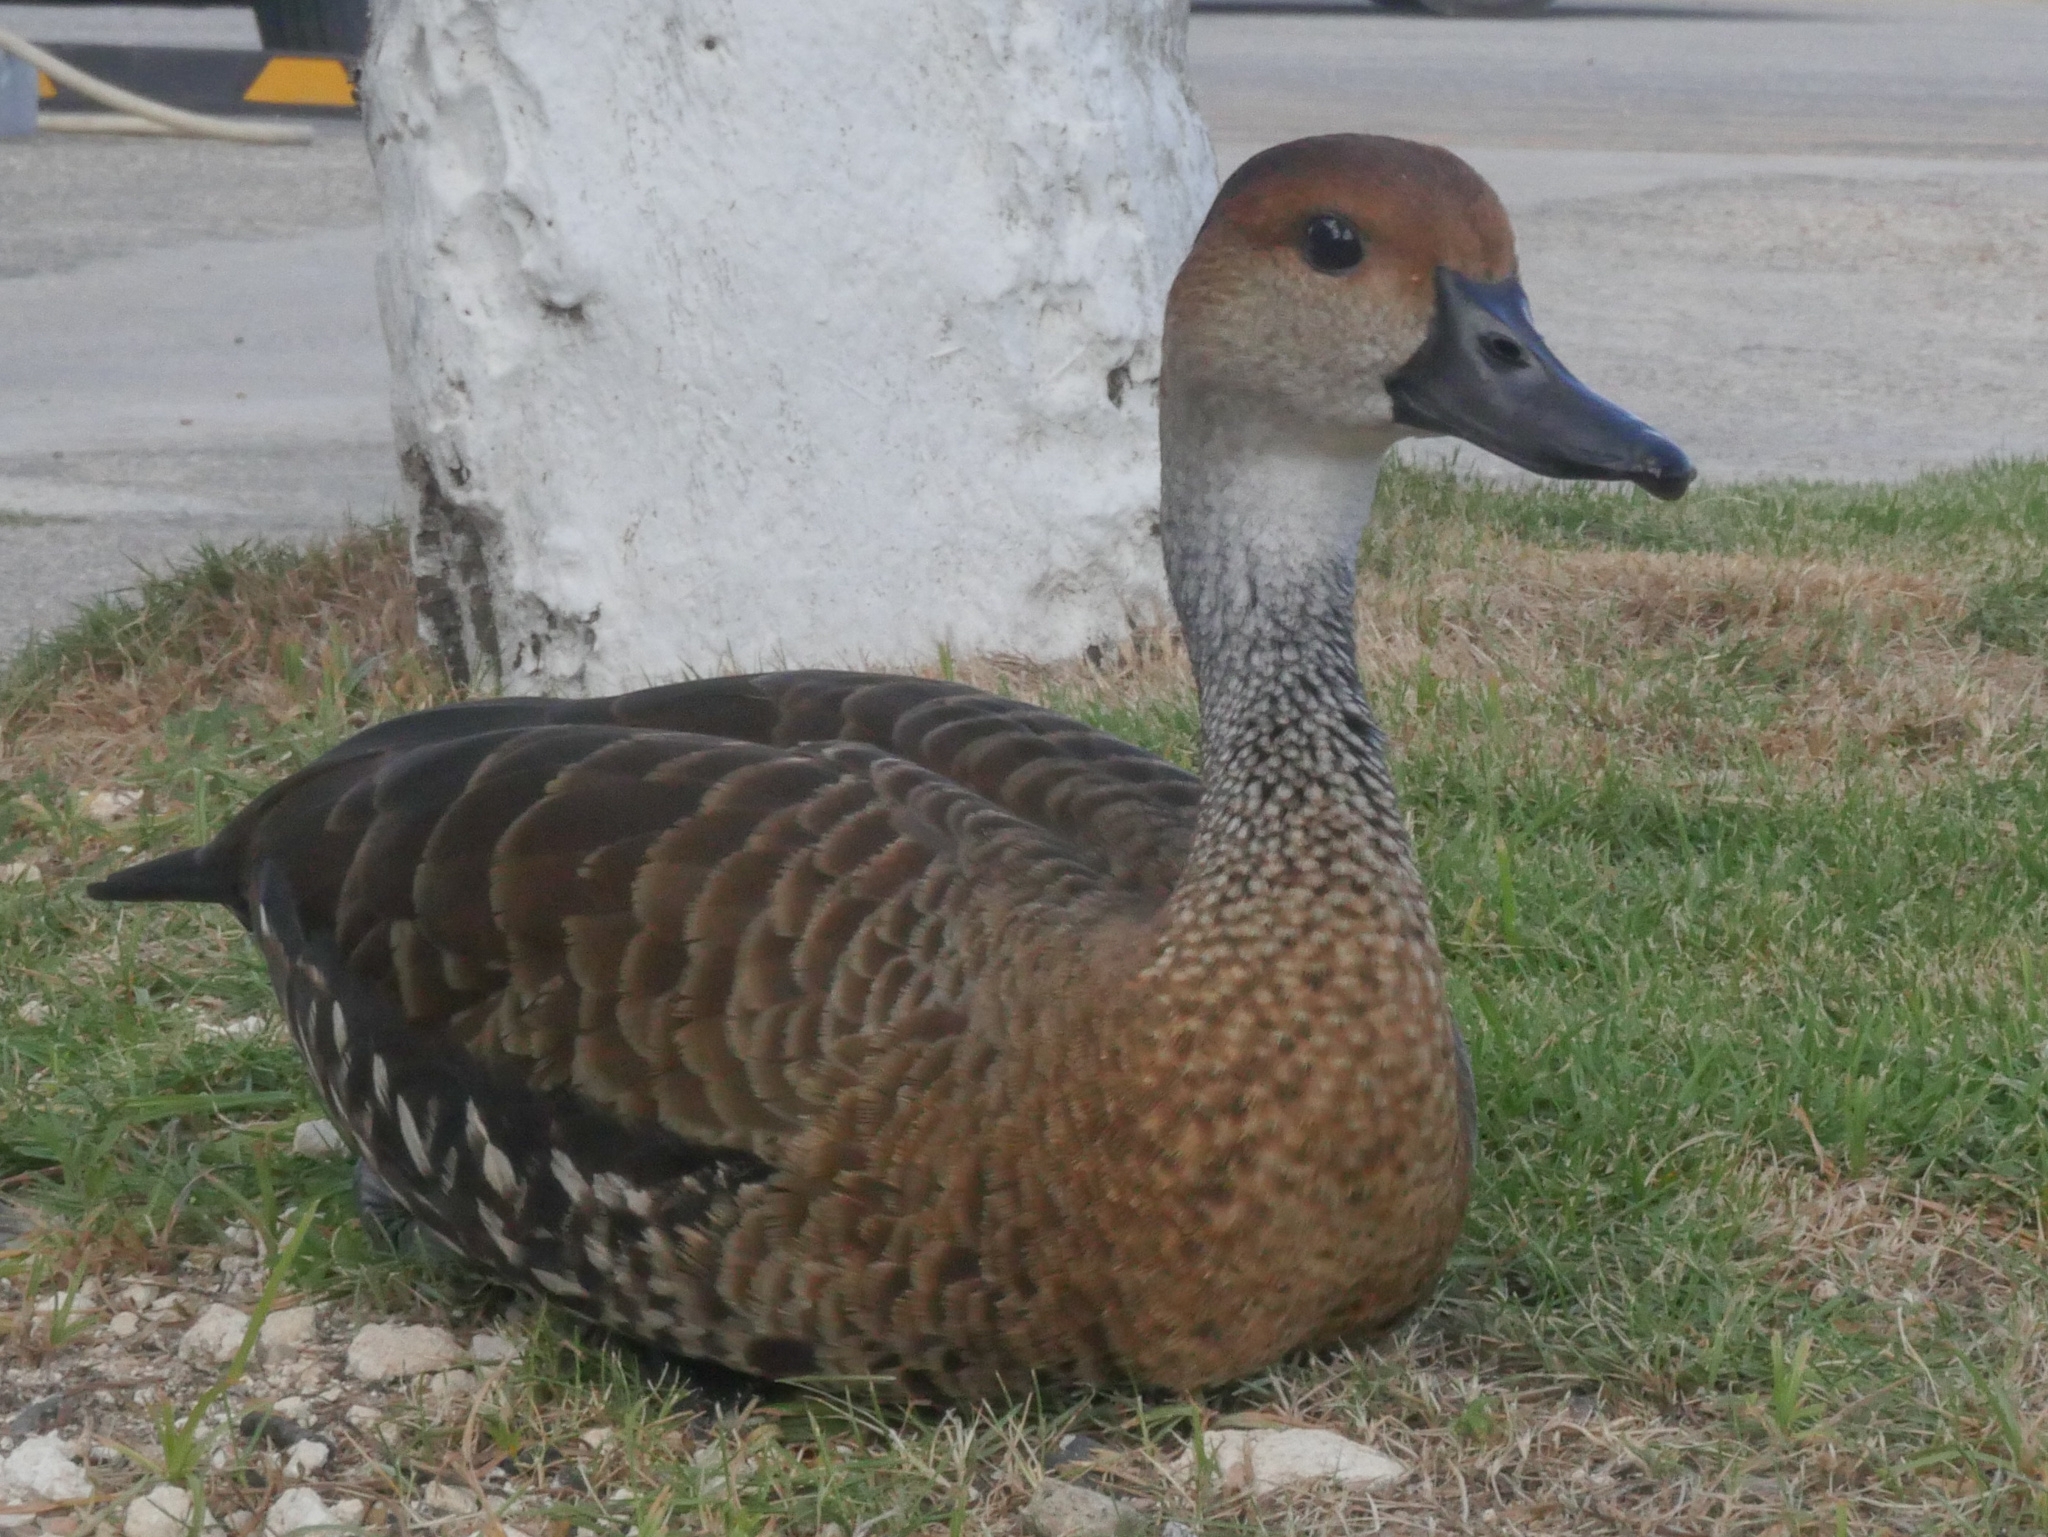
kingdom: Animalia
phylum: Chordata
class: Aves
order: Anseriformes
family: Anatidae
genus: Dendrocygna
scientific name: Dendrocygna arborea
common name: West indian whistling duck
